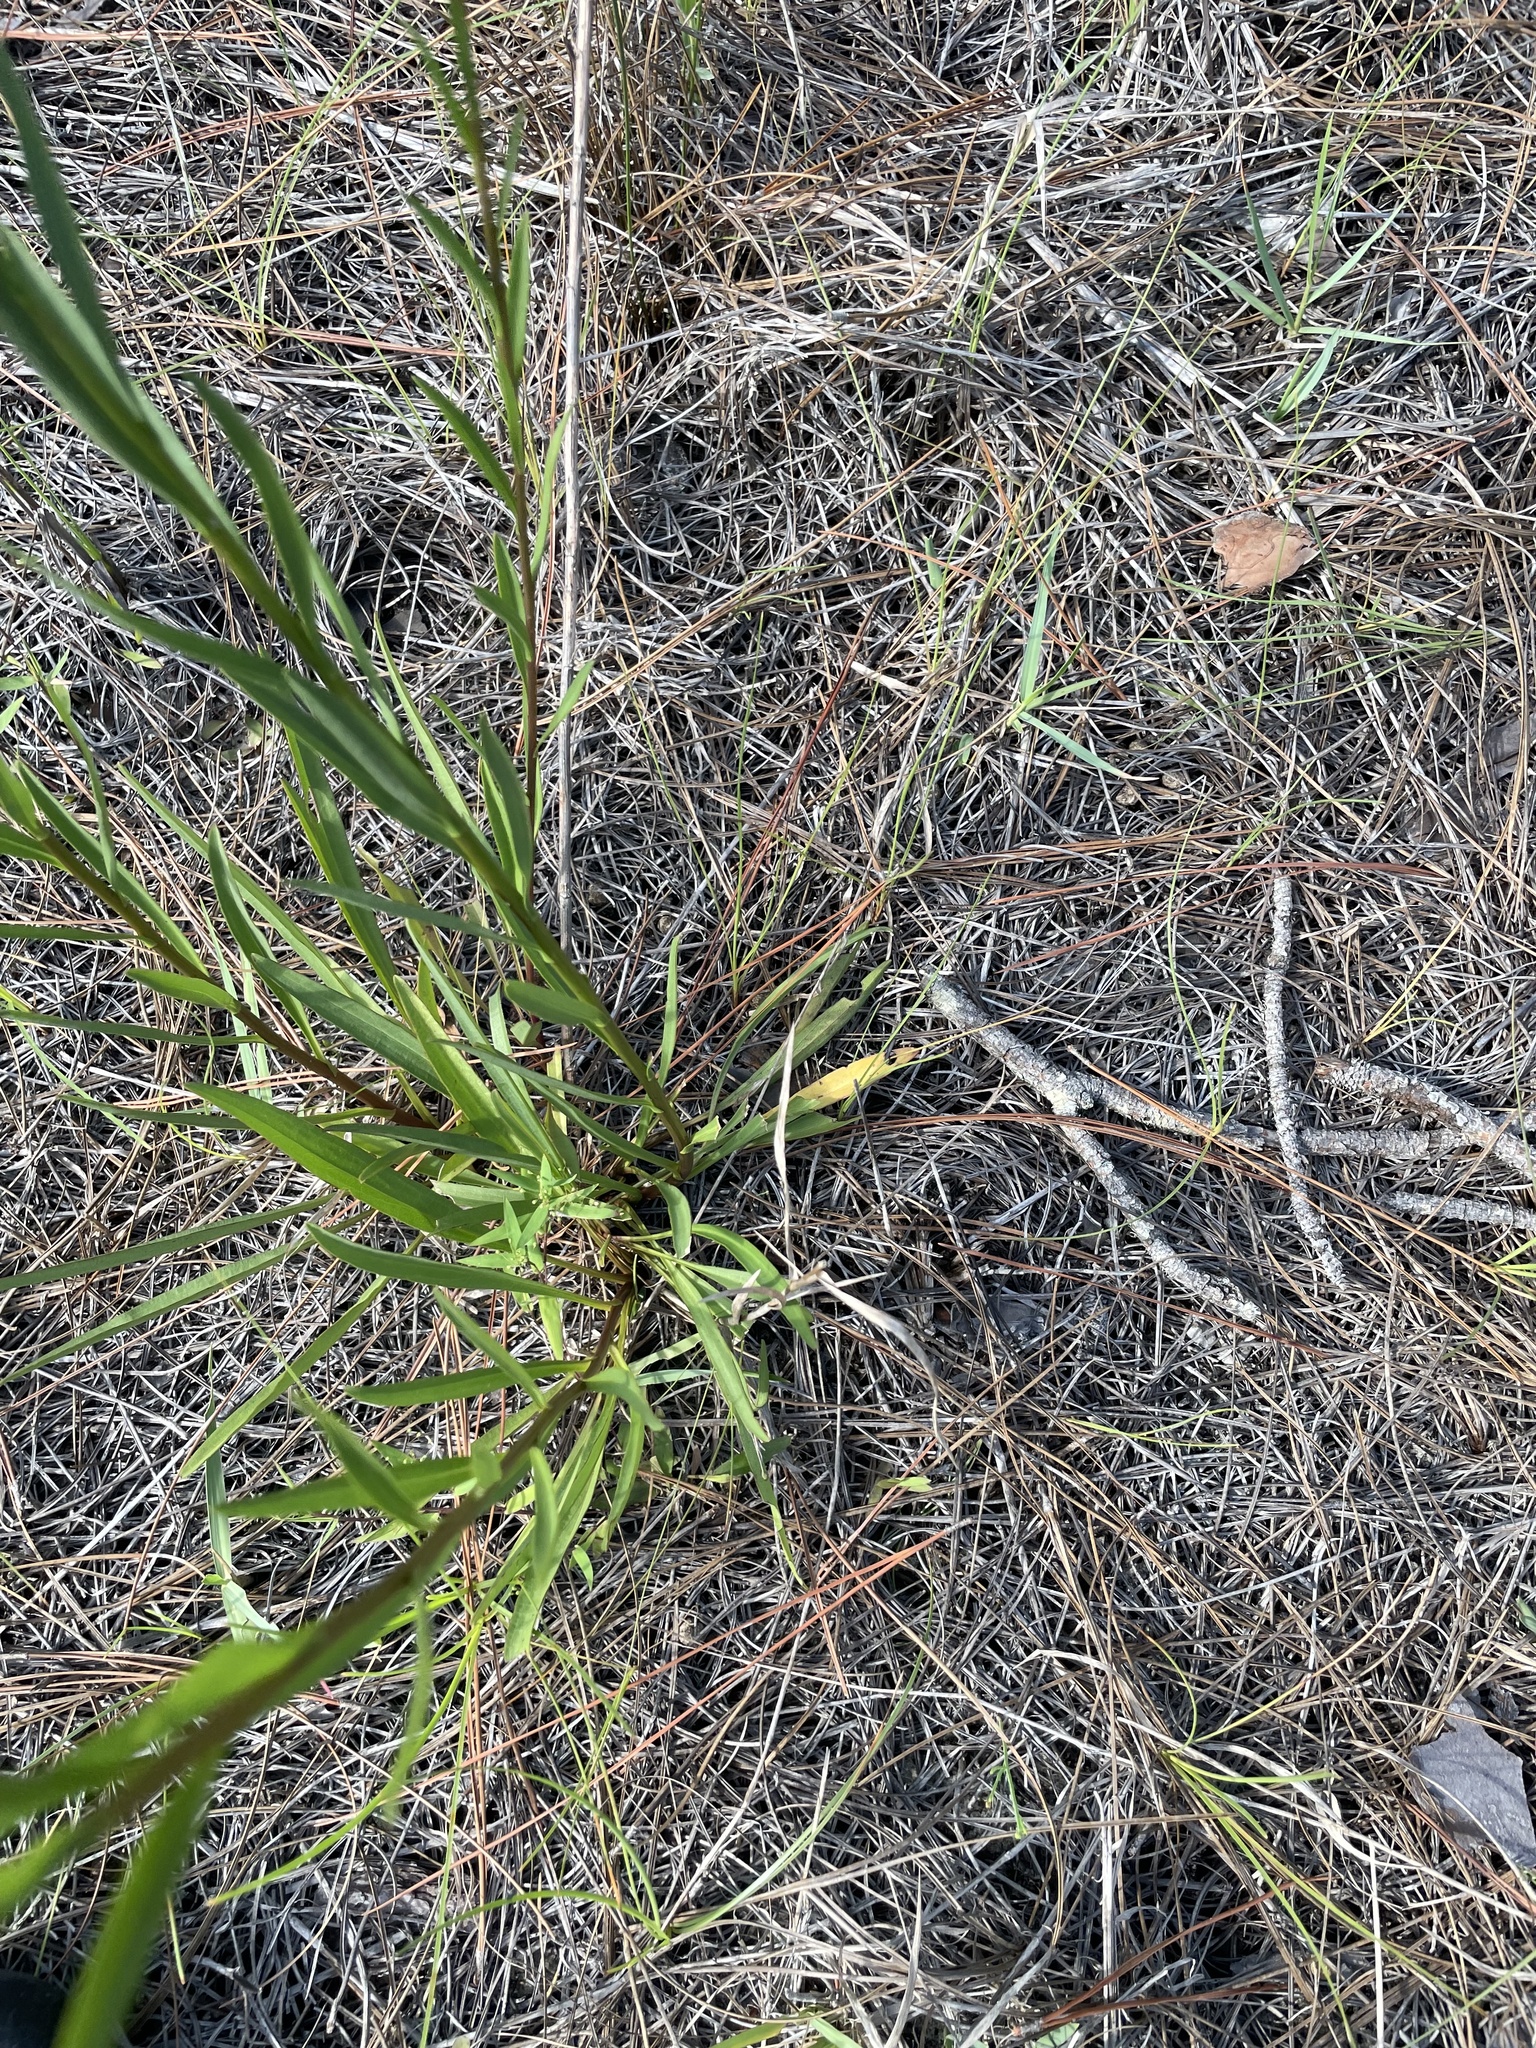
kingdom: Plantae
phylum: Tracheophyta
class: Magnoliopsida
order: Asterales
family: Asteraceae
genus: Solidago
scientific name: Solidago mexicana
